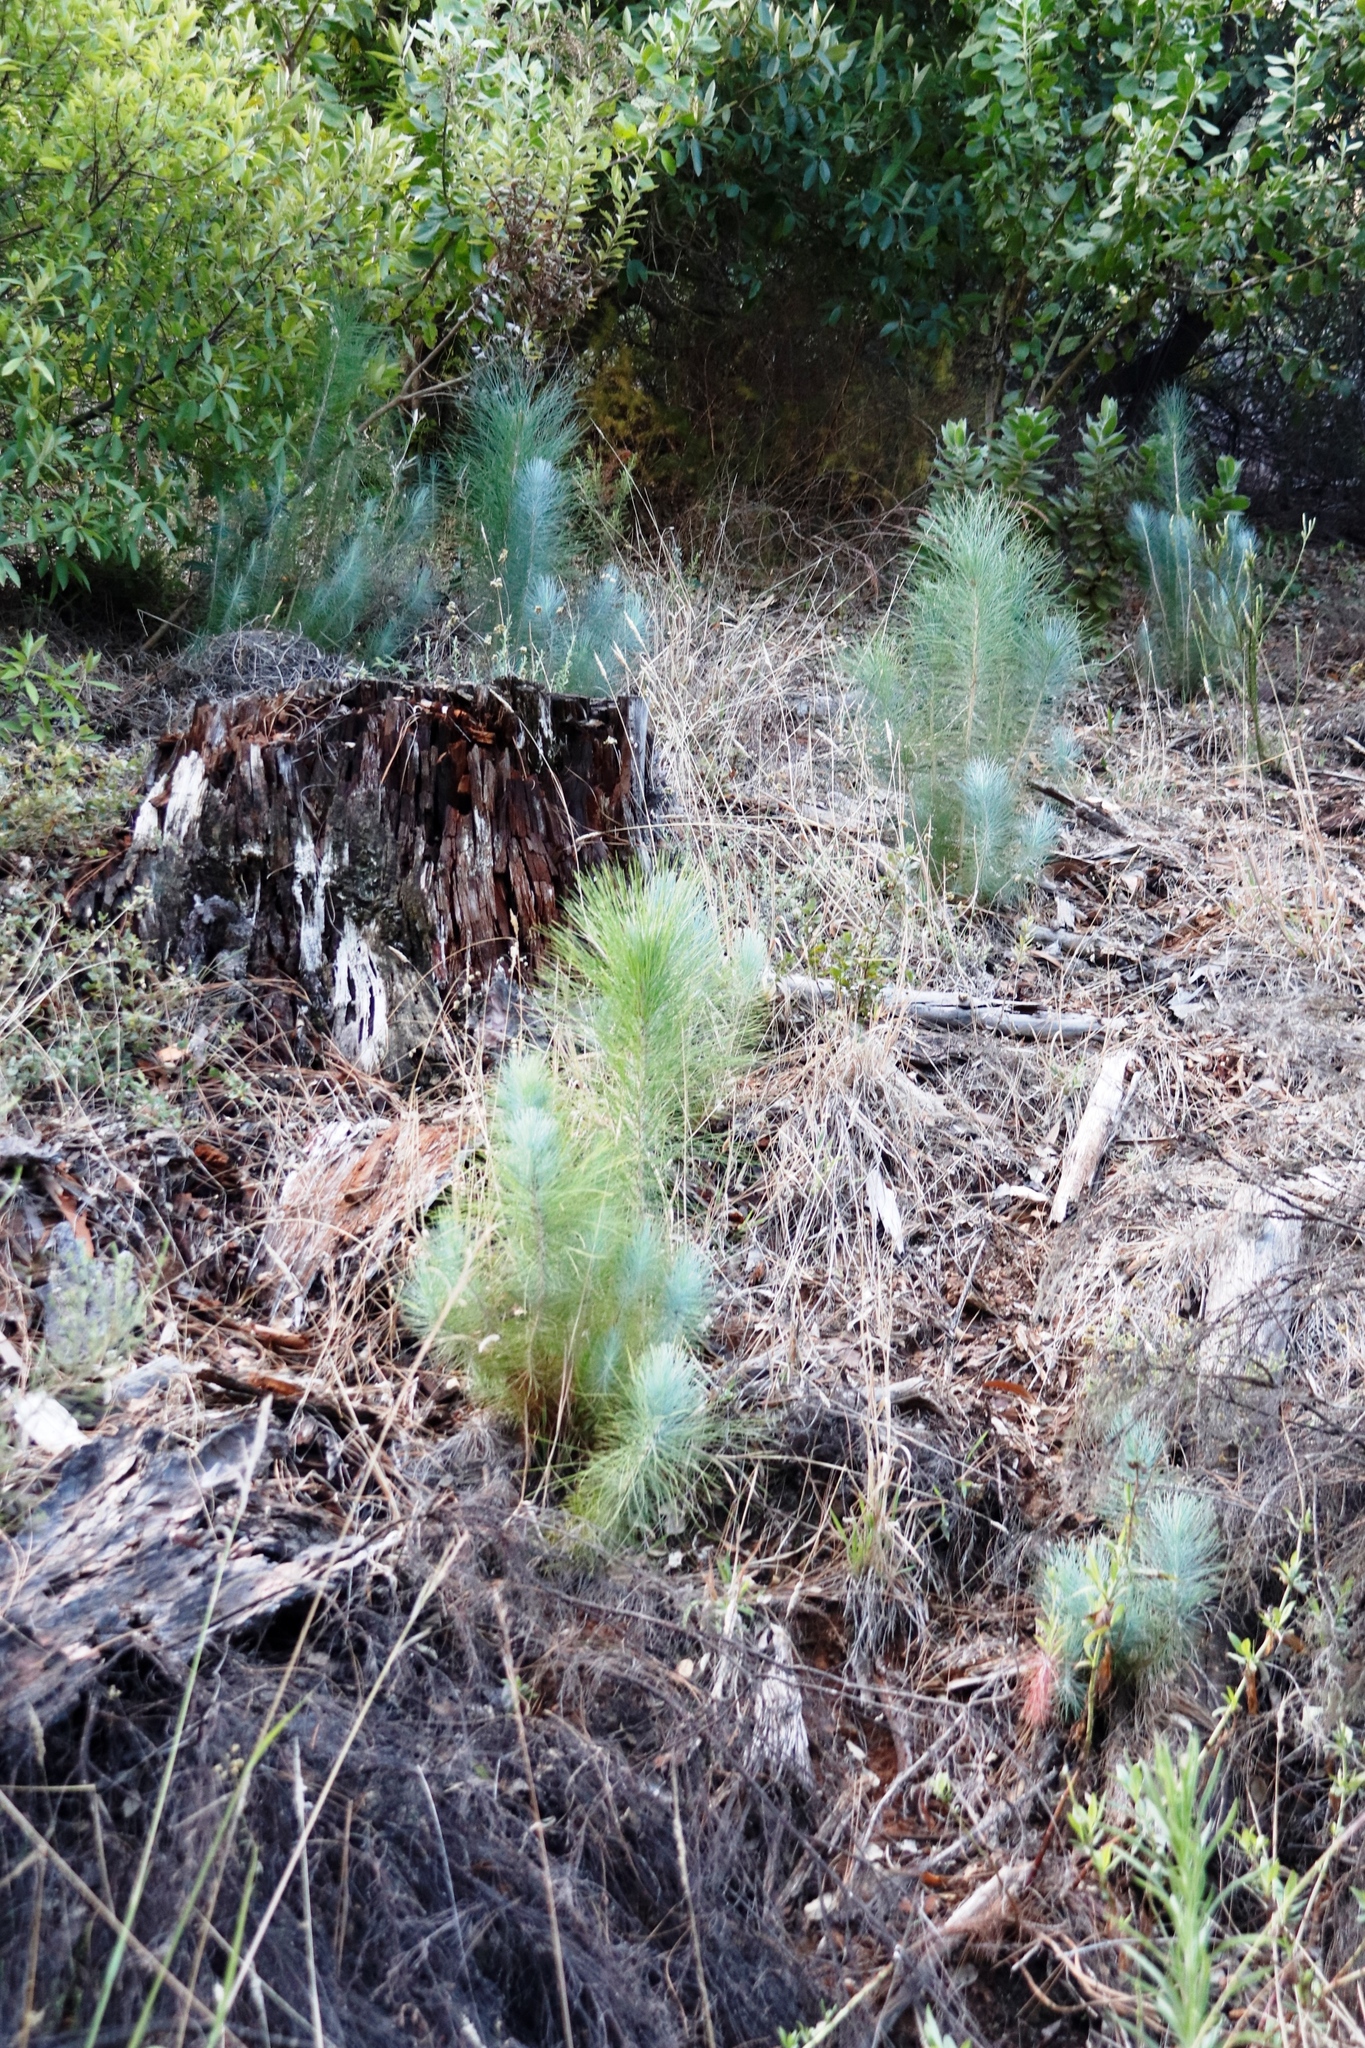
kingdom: Plantae
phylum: Tracheophyta
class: Pinopsida
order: Pinales
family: Pinaceae
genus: Pinus
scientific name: Pinus canariensis
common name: Canary islands pine
